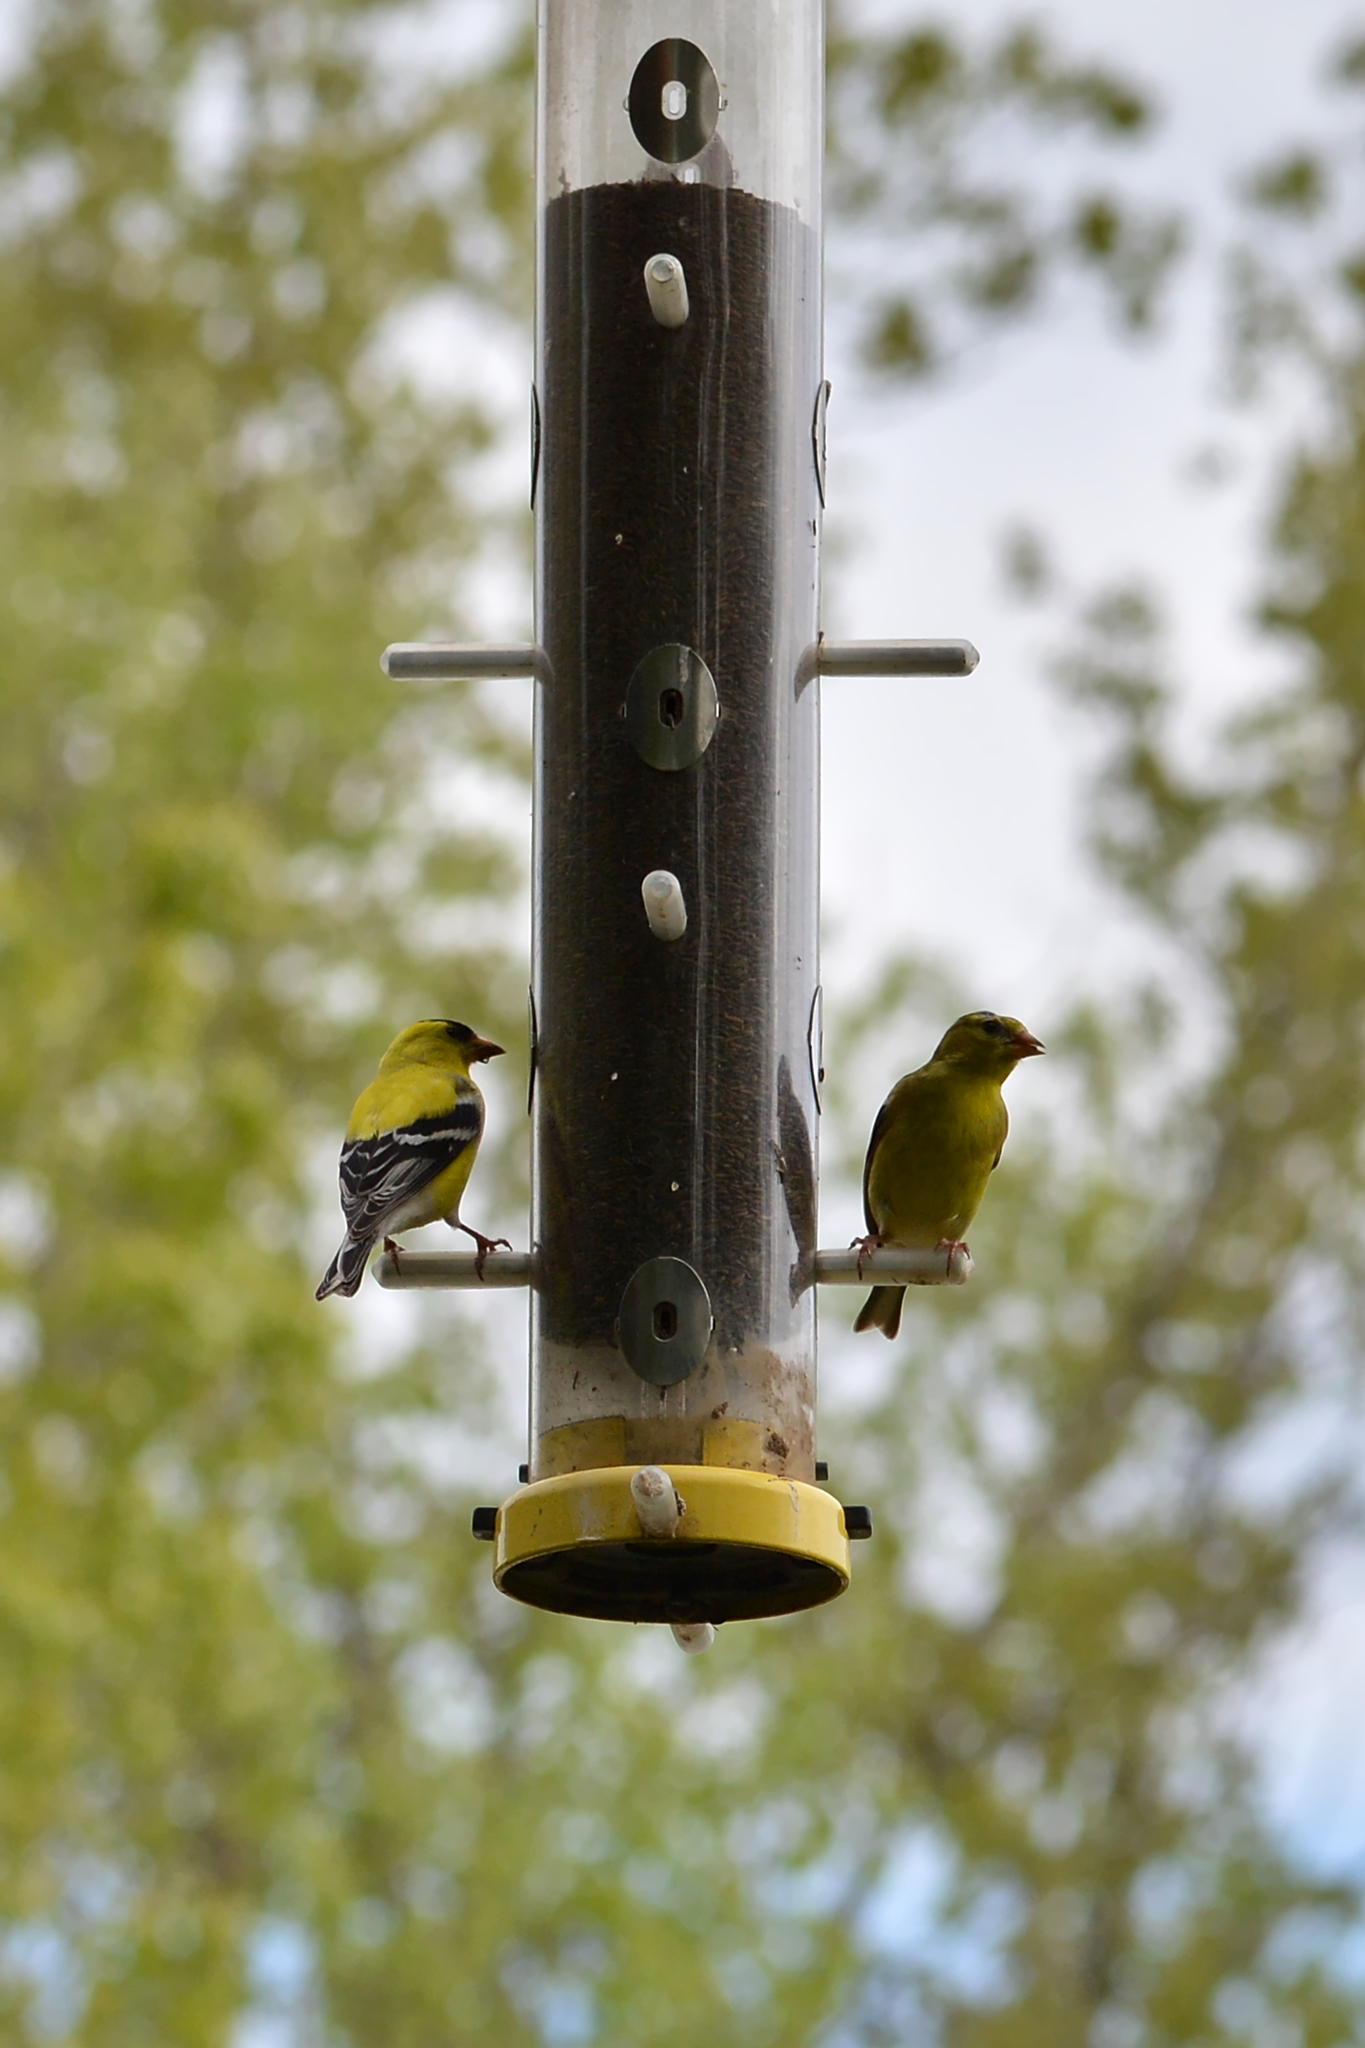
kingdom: Animalia
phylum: Chordata
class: Aves
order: Passeriformes
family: Fringillidae
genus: Spinus
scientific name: Spinus tristis
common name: American goldfinch
